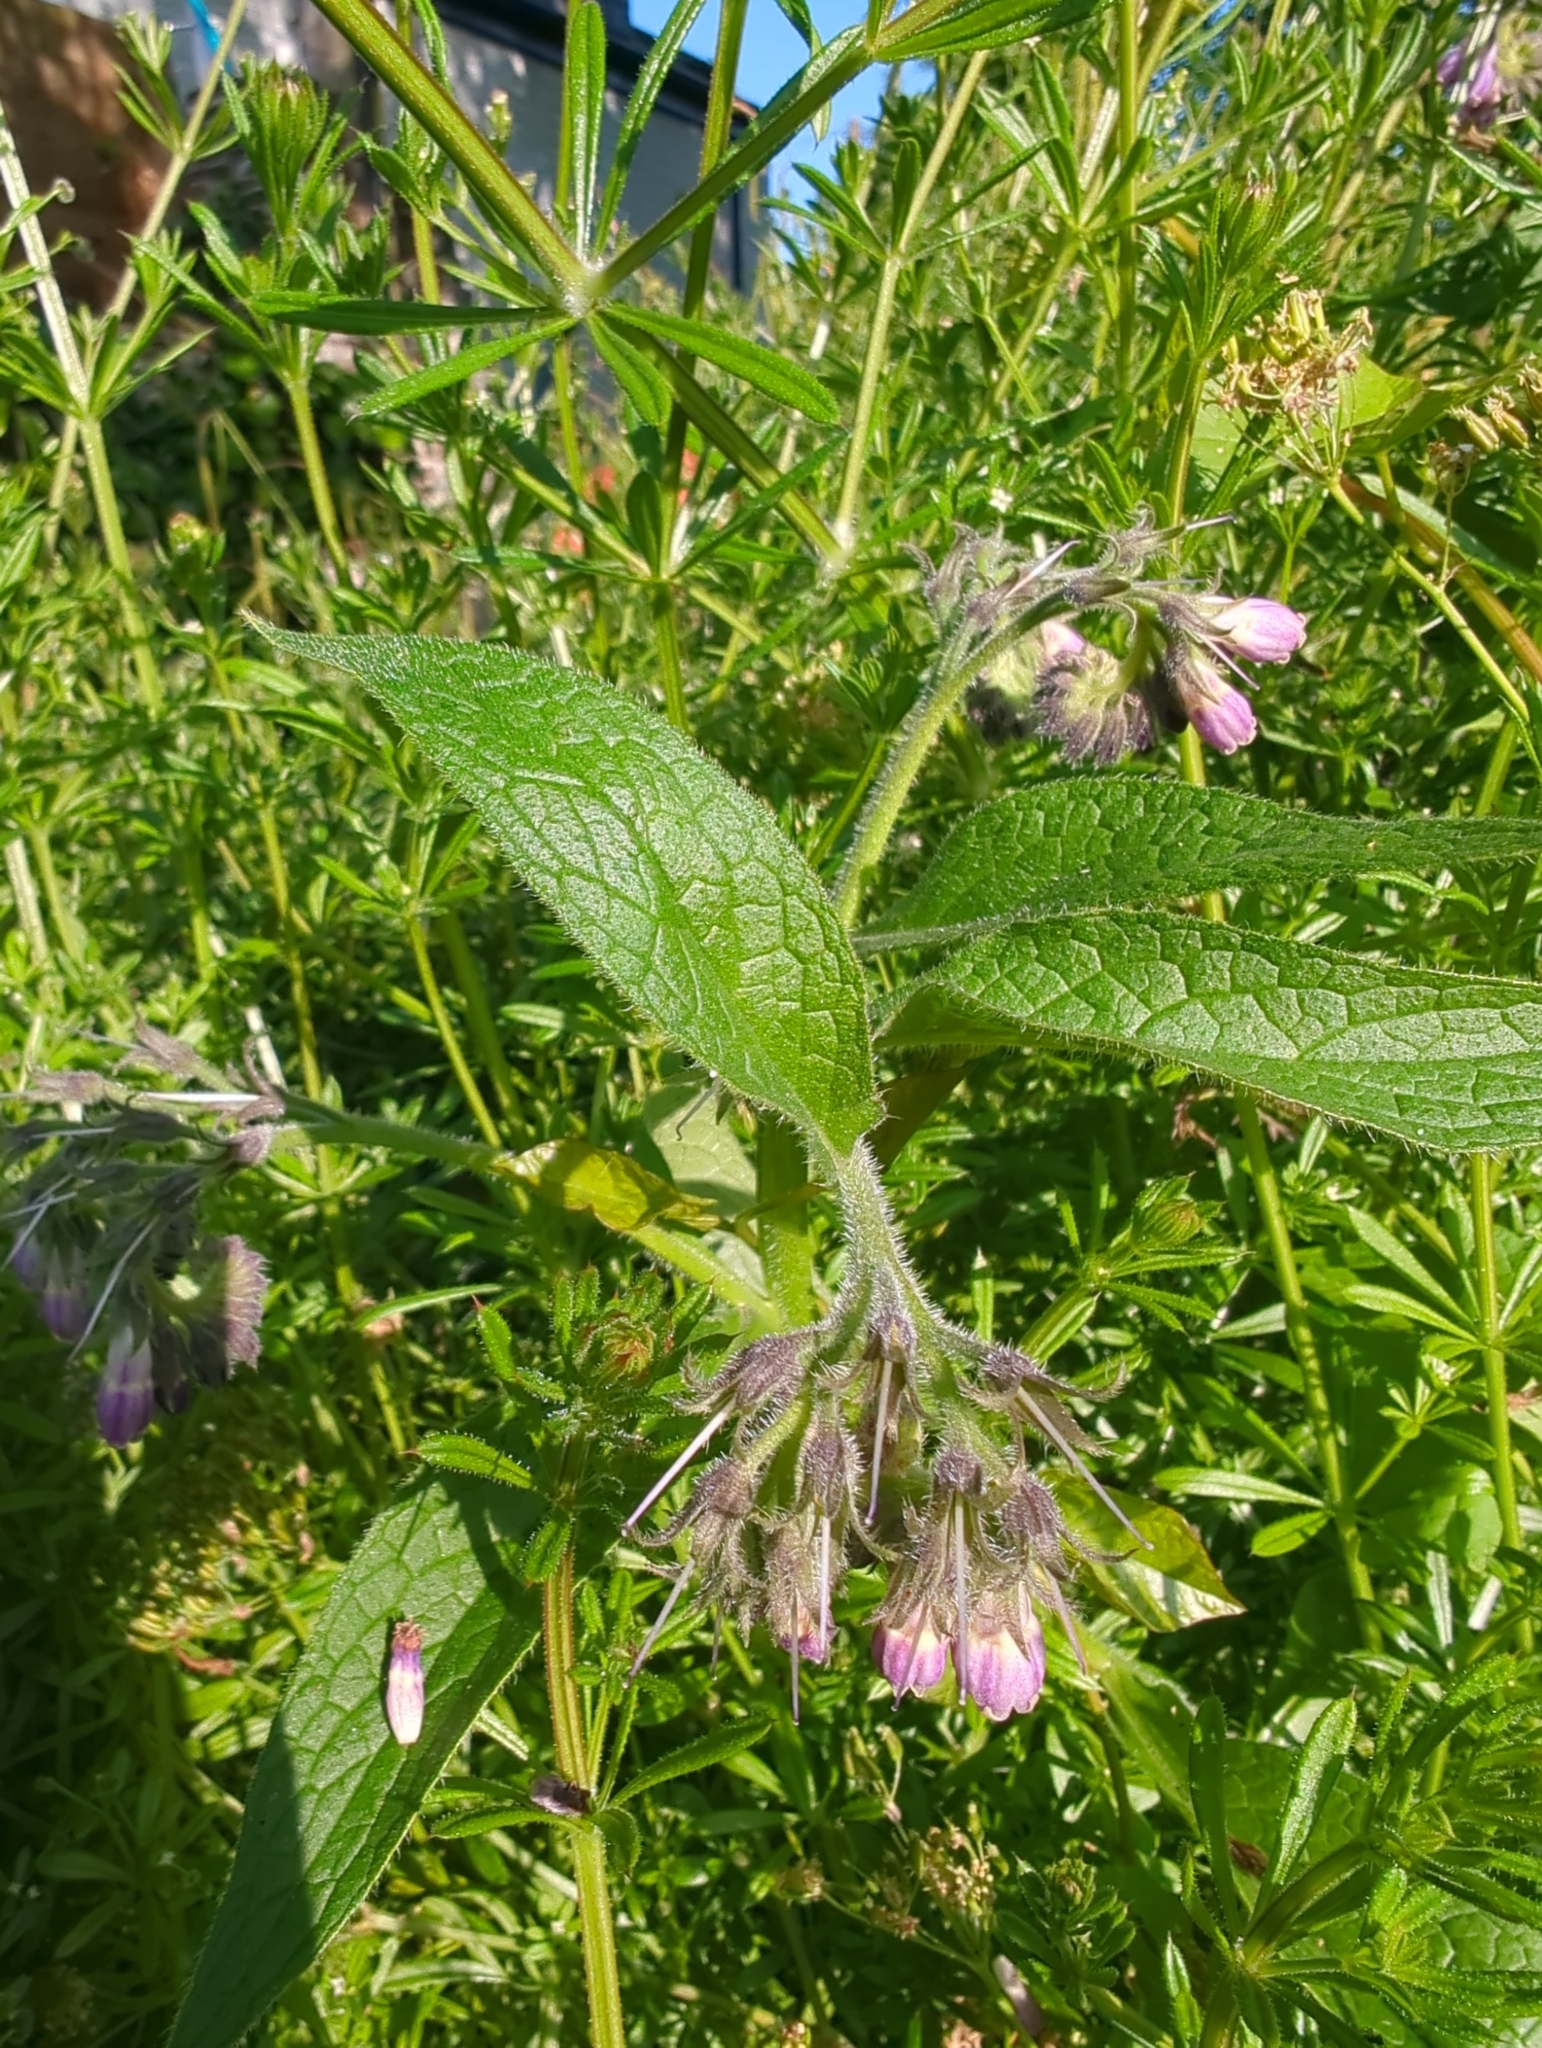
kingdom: Plantae
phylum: Tracheophyta
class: Magnoliopsida
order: Boraginales
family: Boraginaceae
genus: Symphytum
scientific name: Symphytum officinale
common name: Common comfrey
